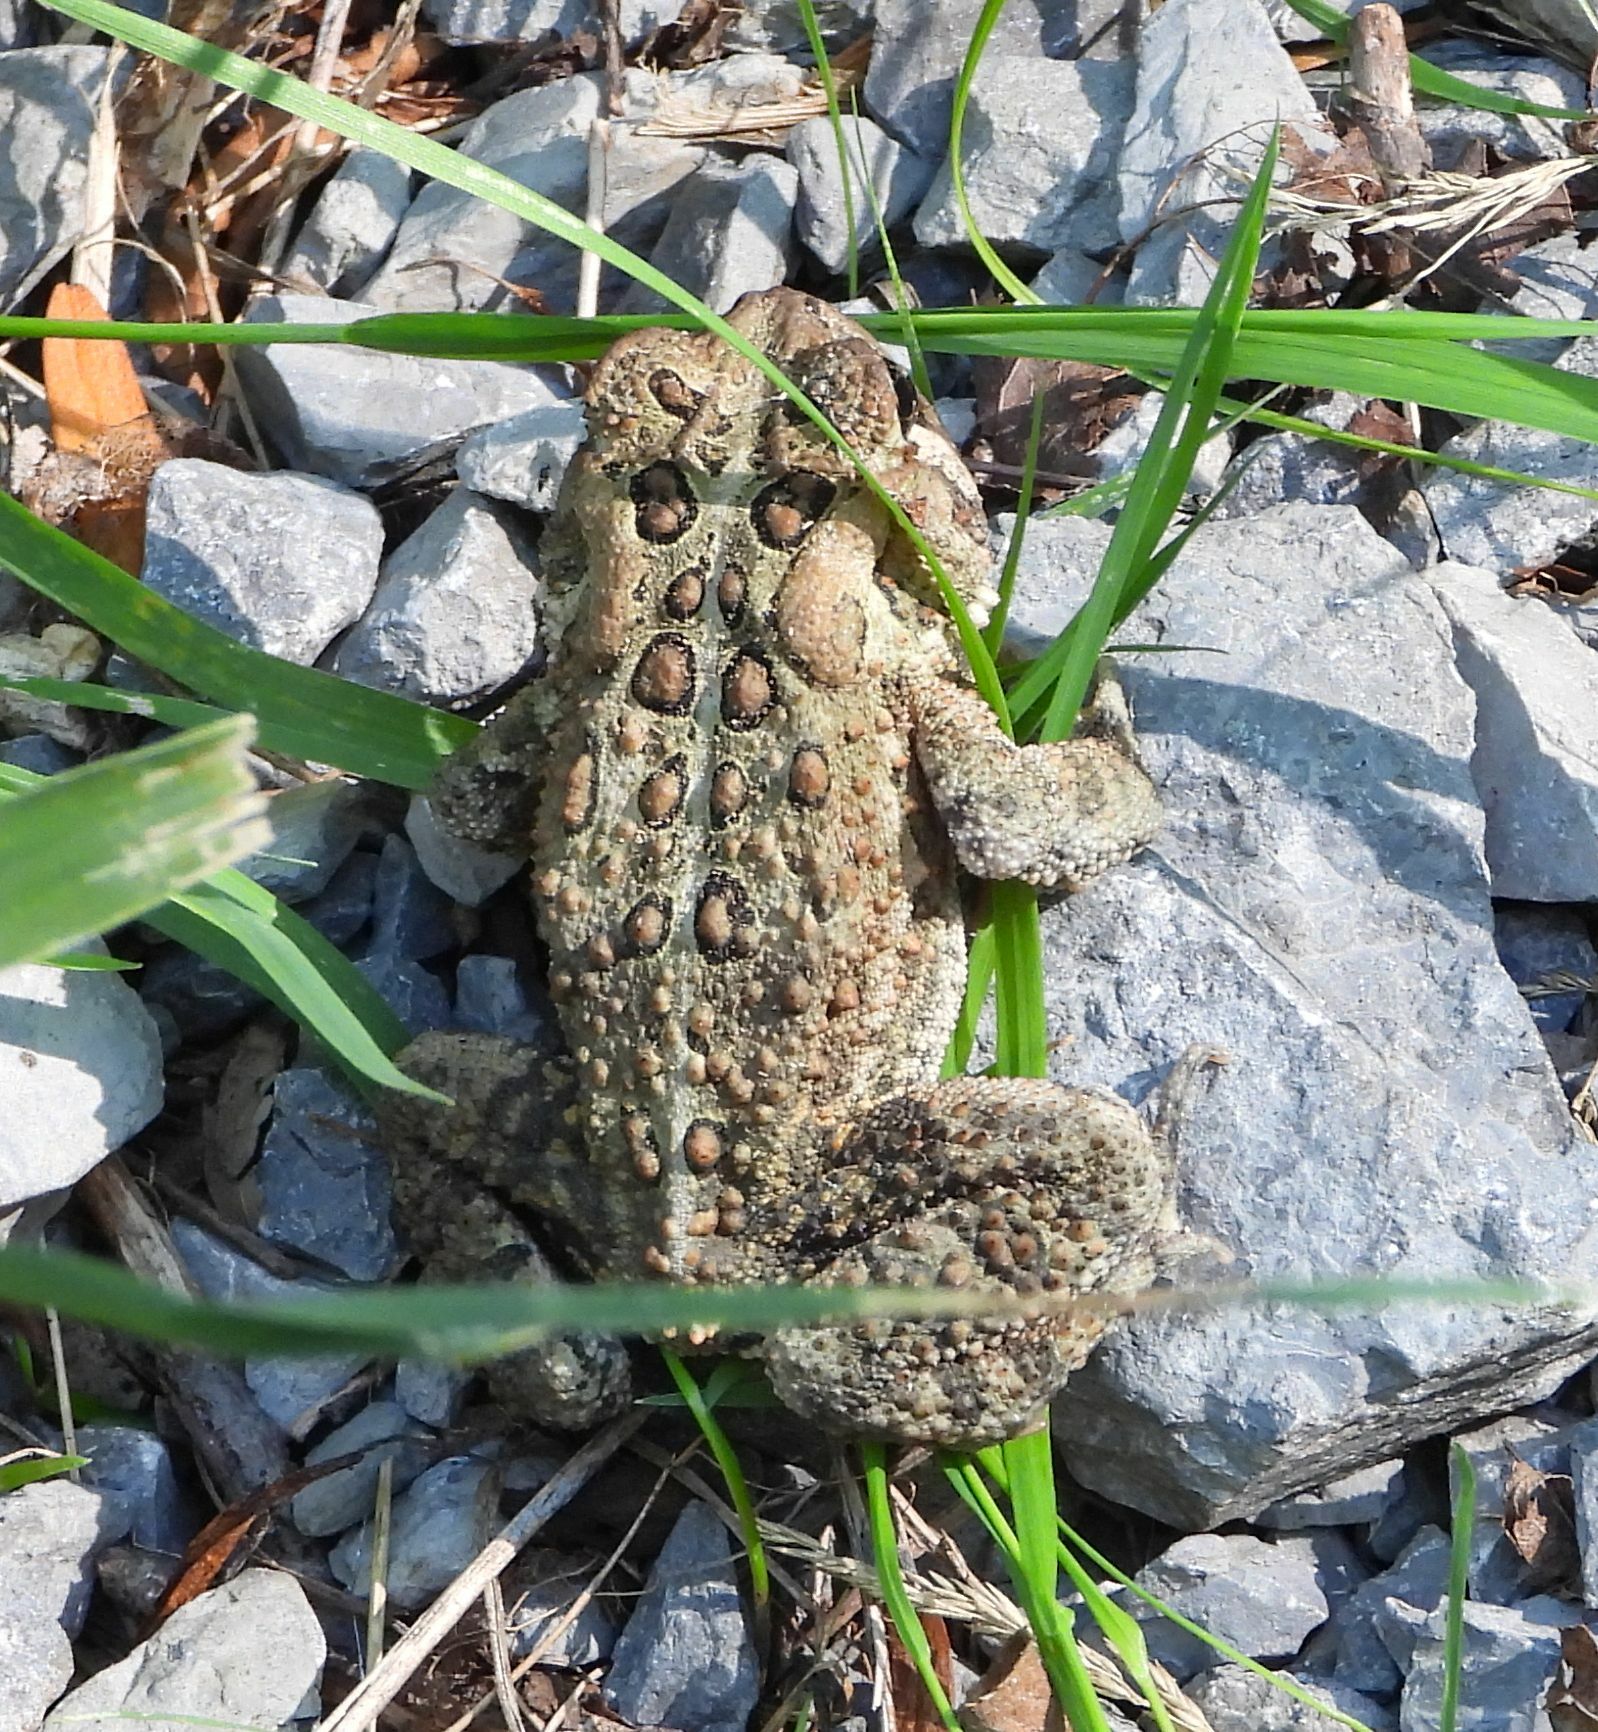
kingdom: Animalia
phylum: Chordata
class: Amphibia
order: Anura
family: Bufonidae
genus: Anaxyrus
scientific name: Anaxyrus americanus
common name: American toad
